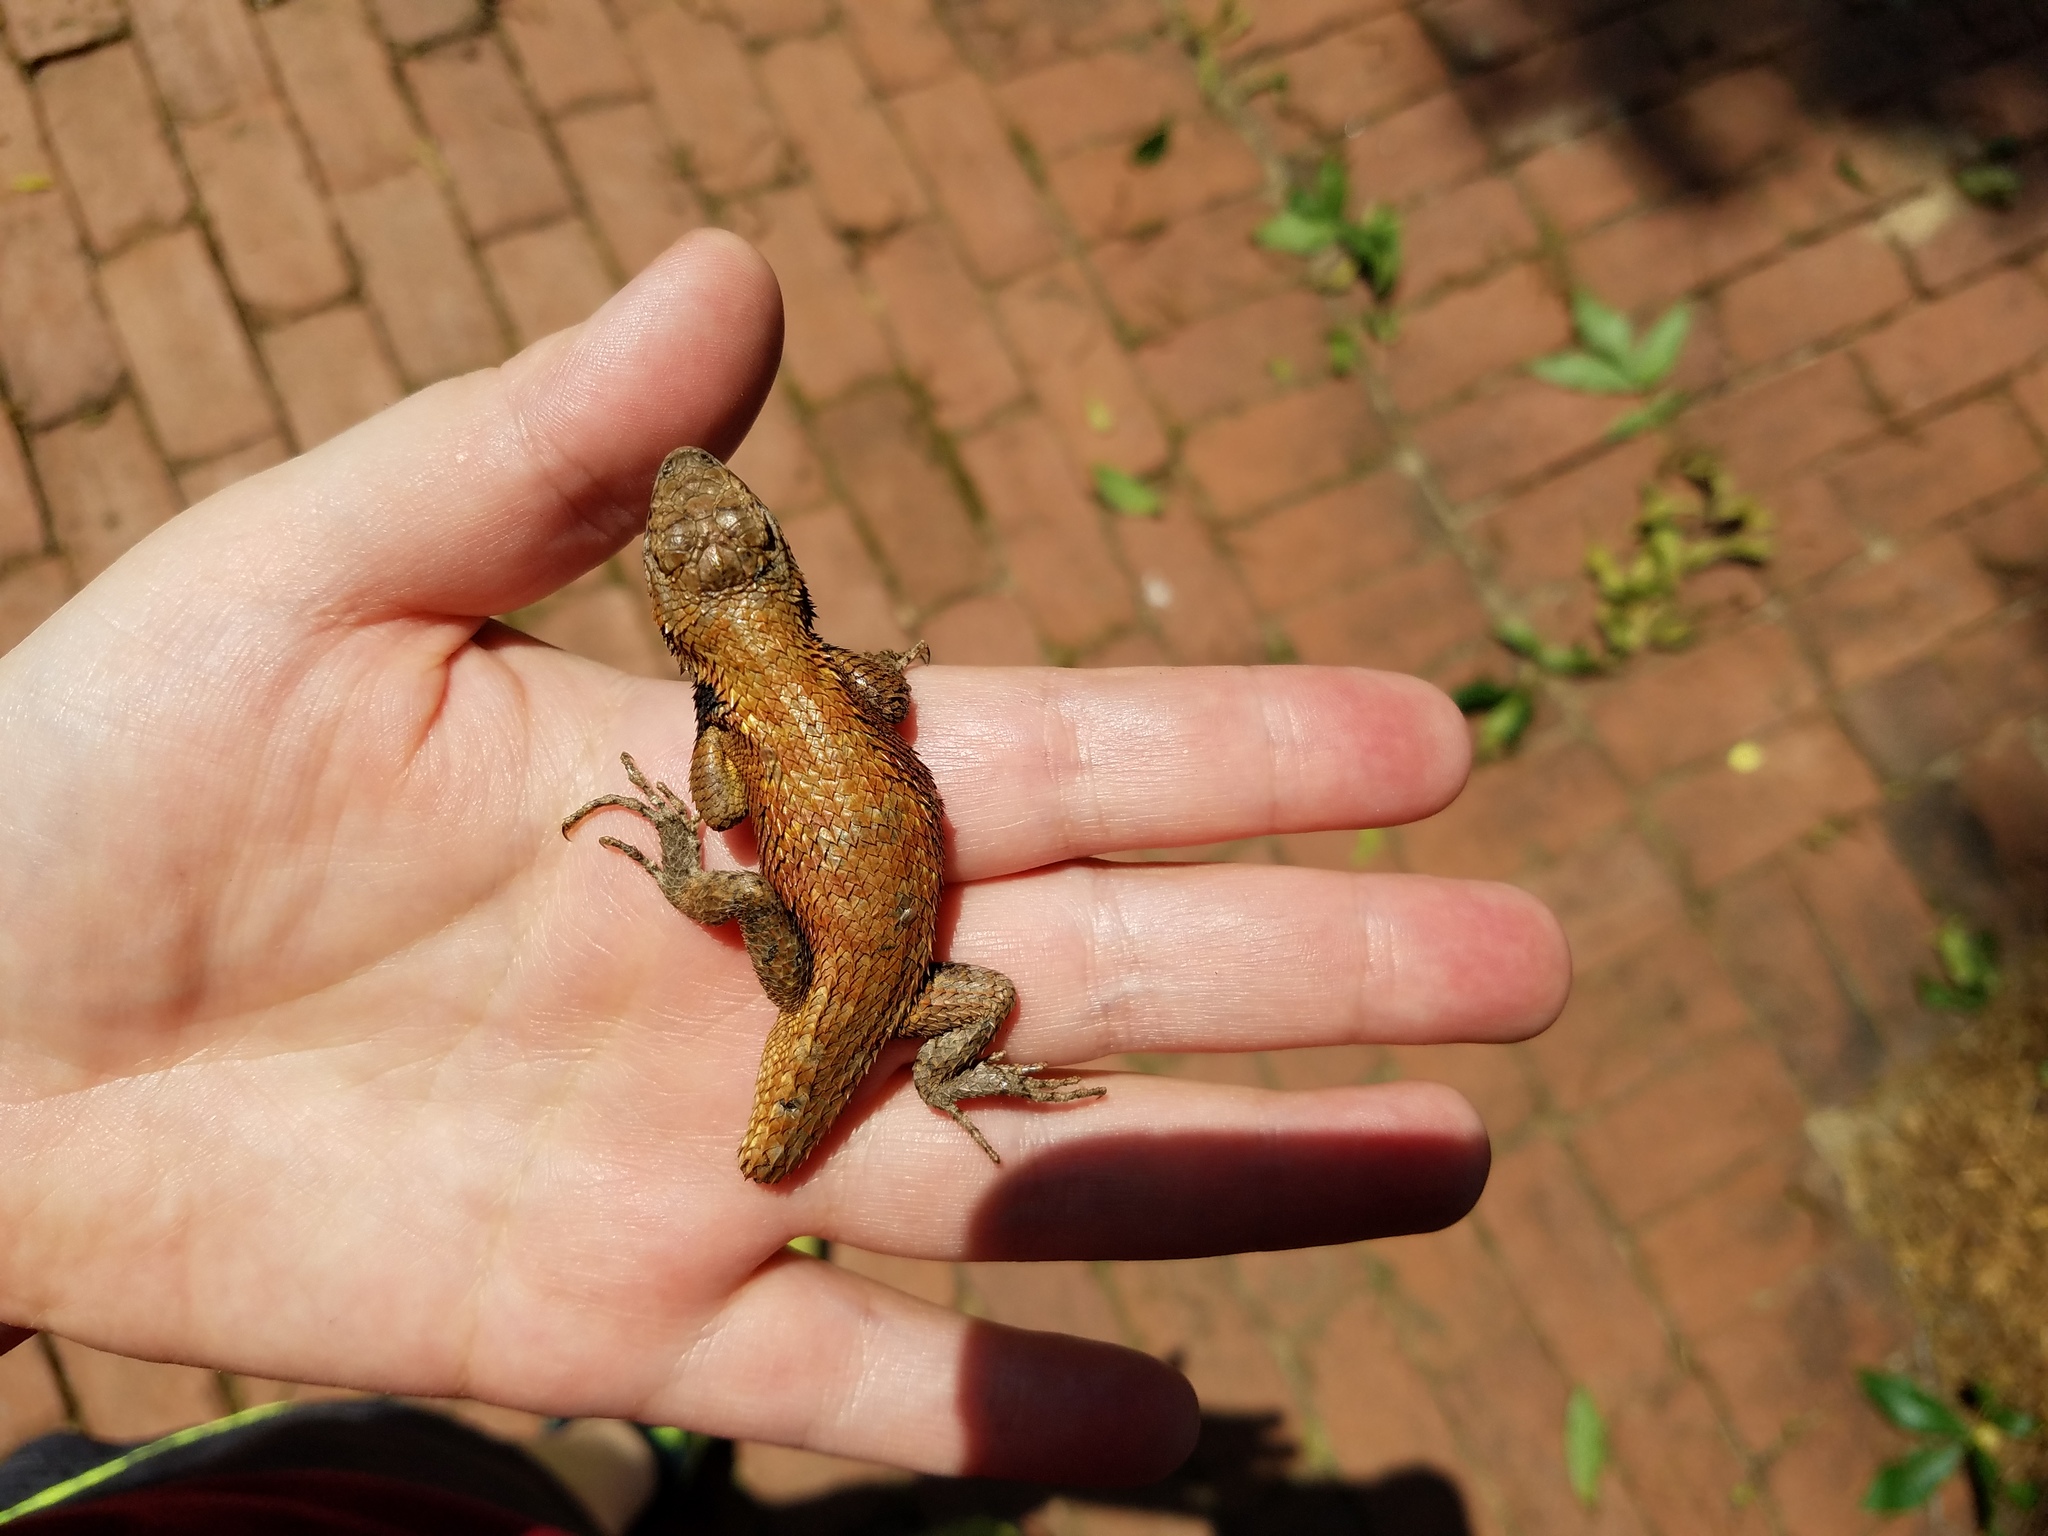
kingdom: Animalia
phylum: Chordata
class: Squamata
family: Phrynosomatidae
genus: Sceloporus
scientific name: Sceloporus undulatus
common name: Eastern fence lizard
